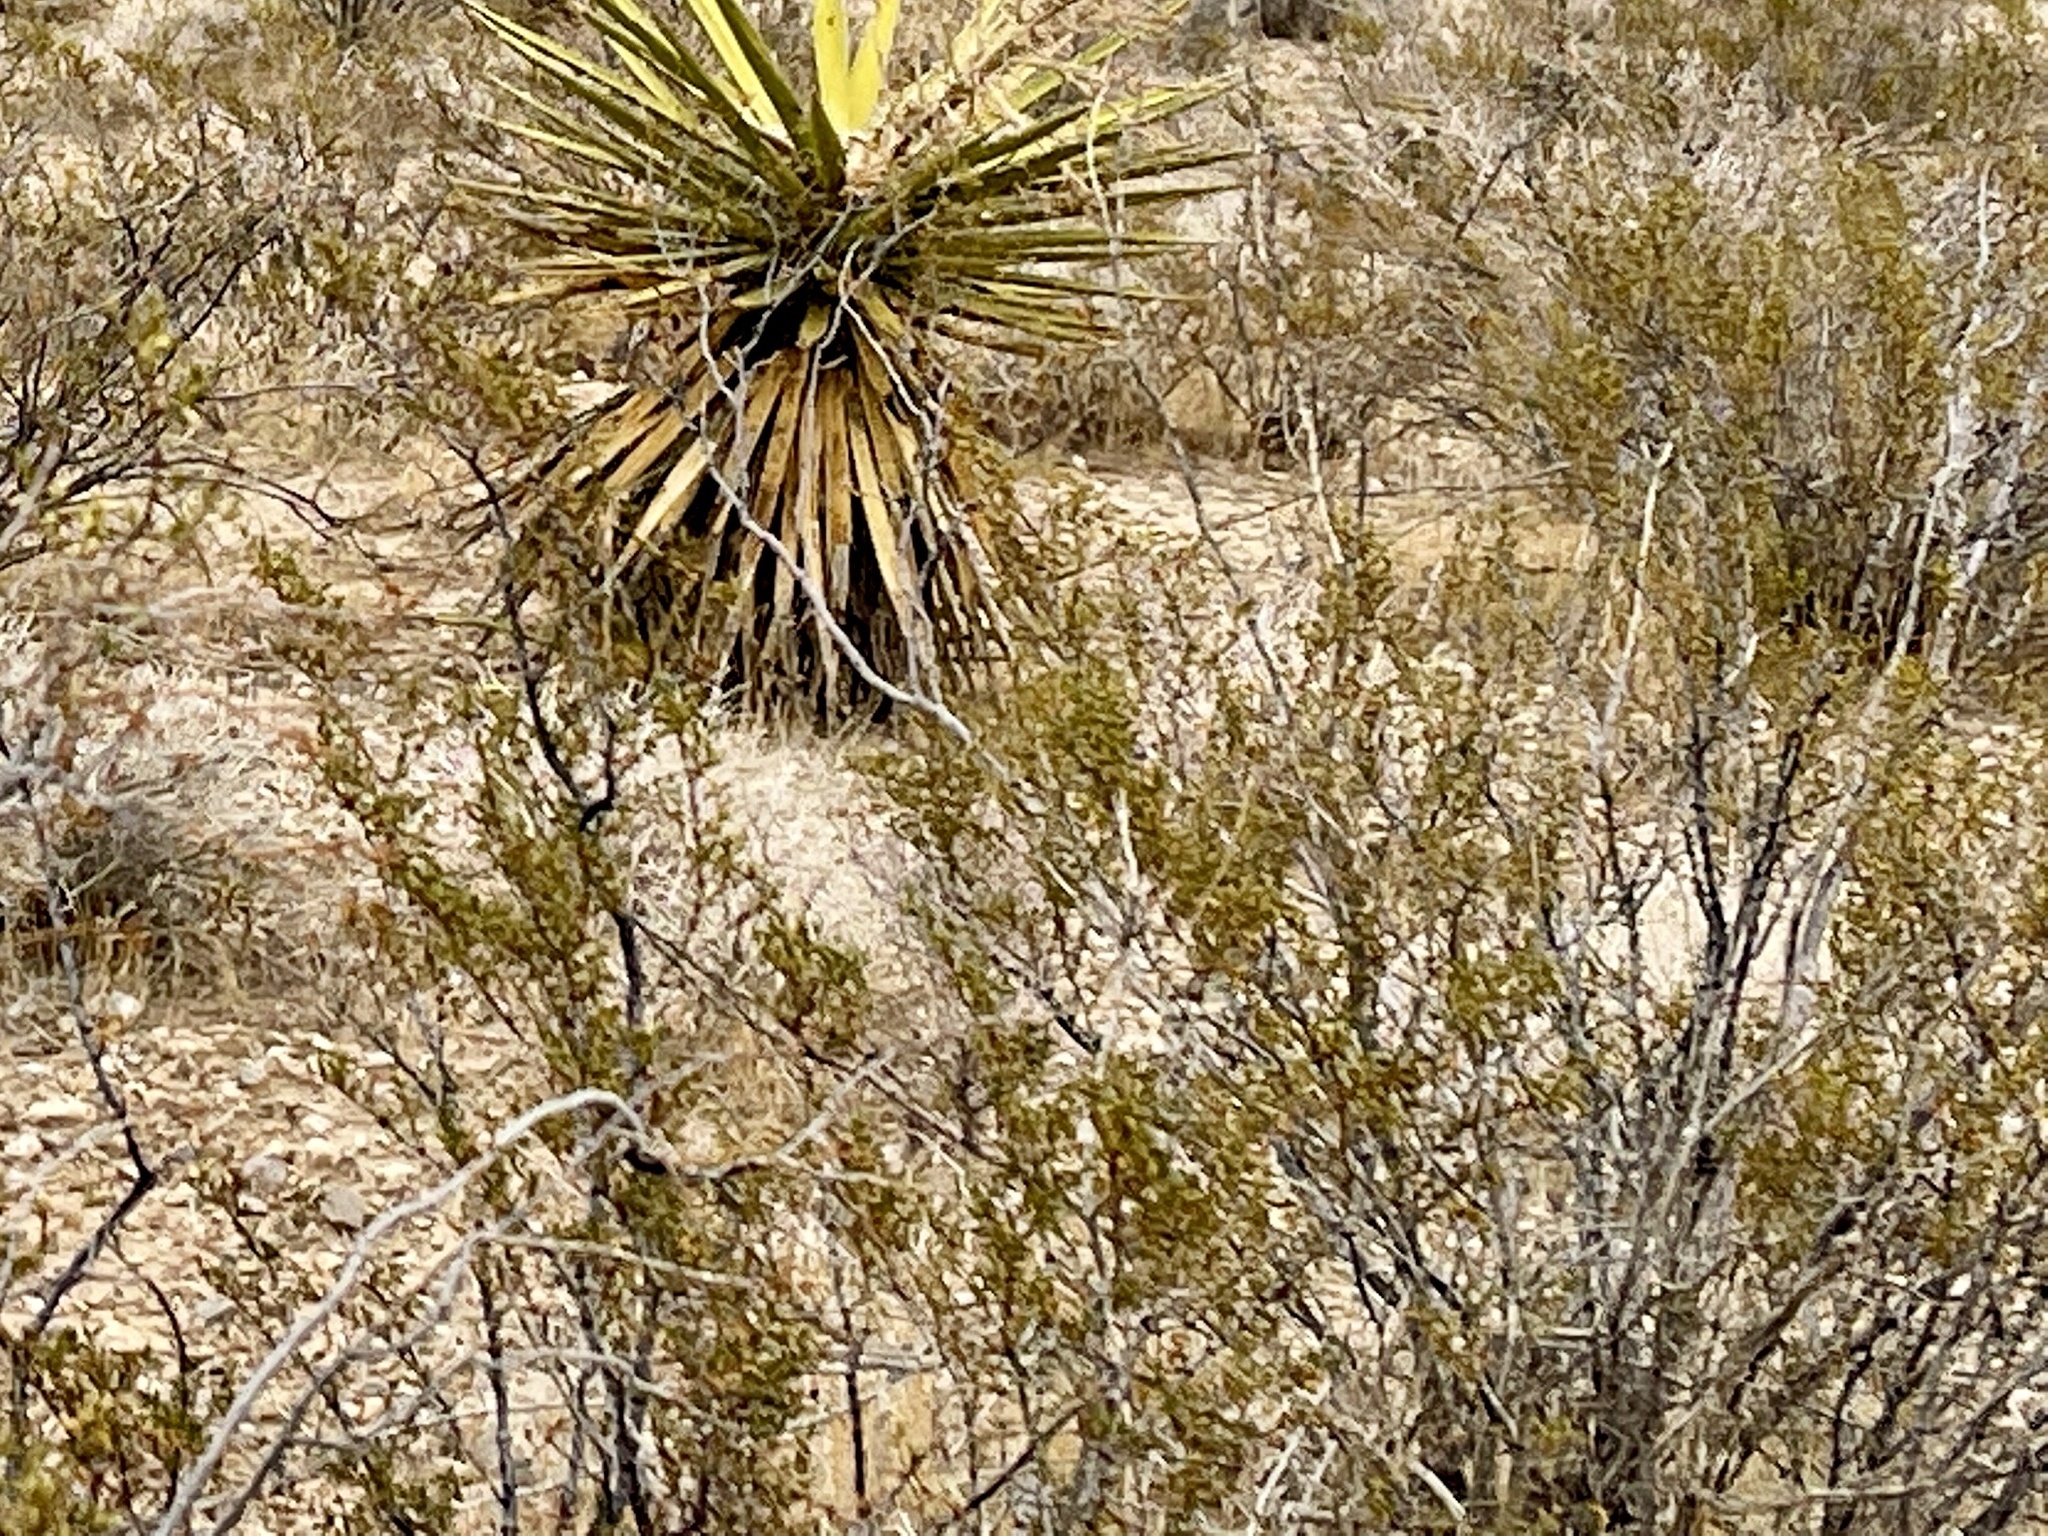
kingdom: Plantae
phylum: Tracheophyta
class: Magnoliopsida
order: Zygophyllales
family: Zygophyllaceae
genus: Larrea
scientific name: Larrea tridentata
